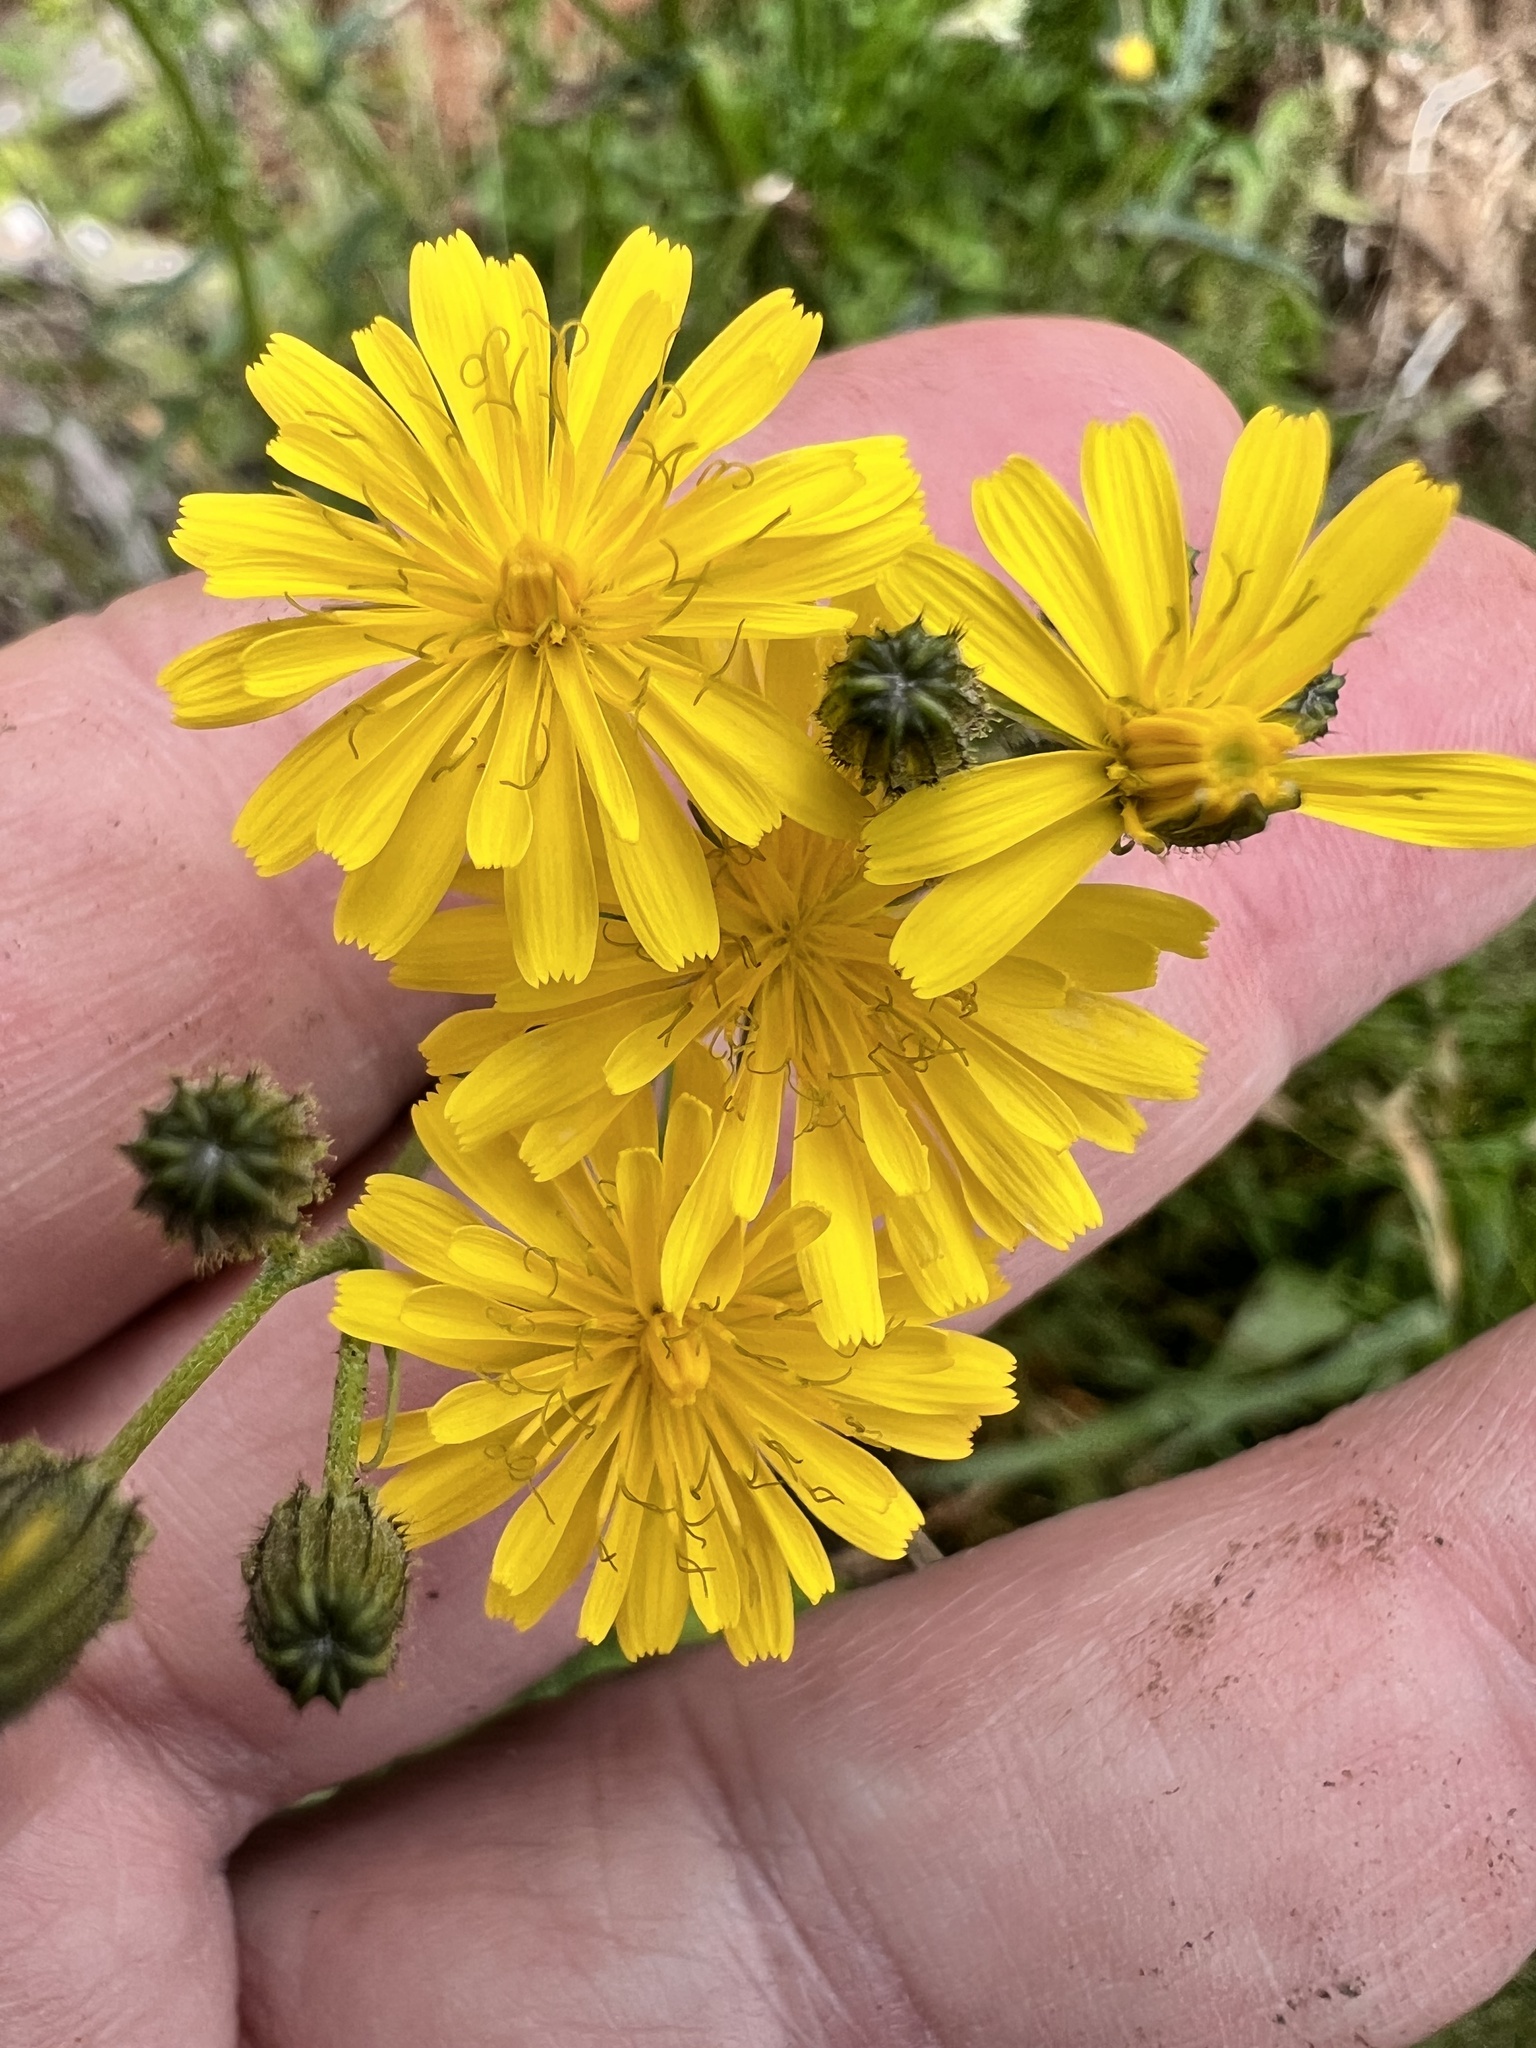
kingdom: Plantae
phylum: Tracheophyta
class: Magnoliopsida
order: Asterales
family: Asteraceae
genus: Crepis
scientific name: Crepis capillaris
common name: Smooth hawksbeard
